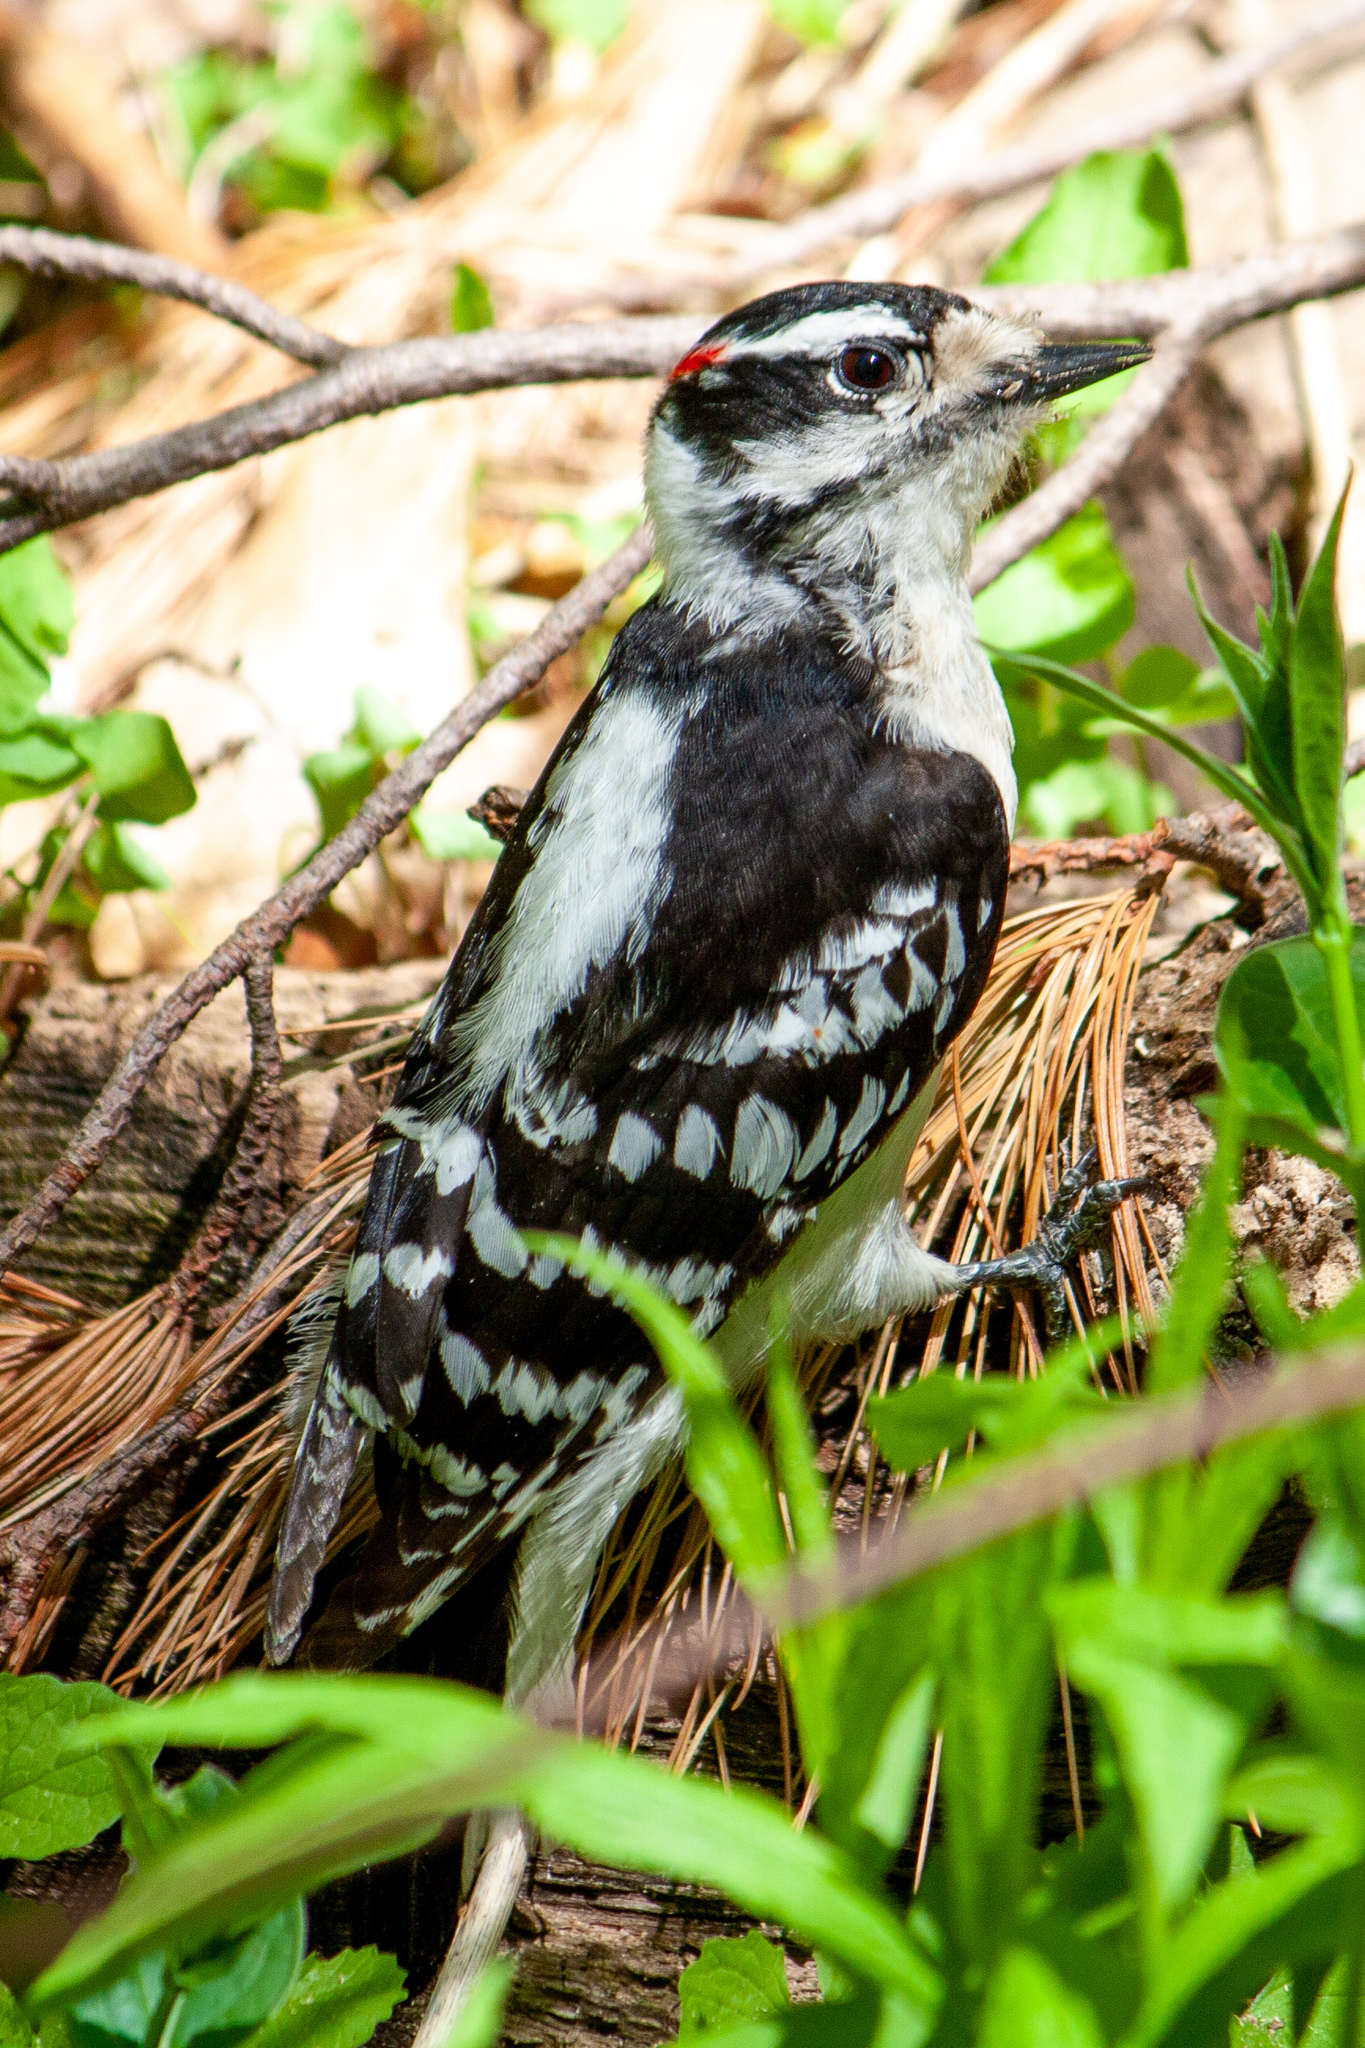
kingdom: Animalia
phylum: Chordata
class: Aves
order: Piciformes
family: Picidae
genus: Dryobates
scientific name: Dryobates pubescens
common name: Downy woodpecker
